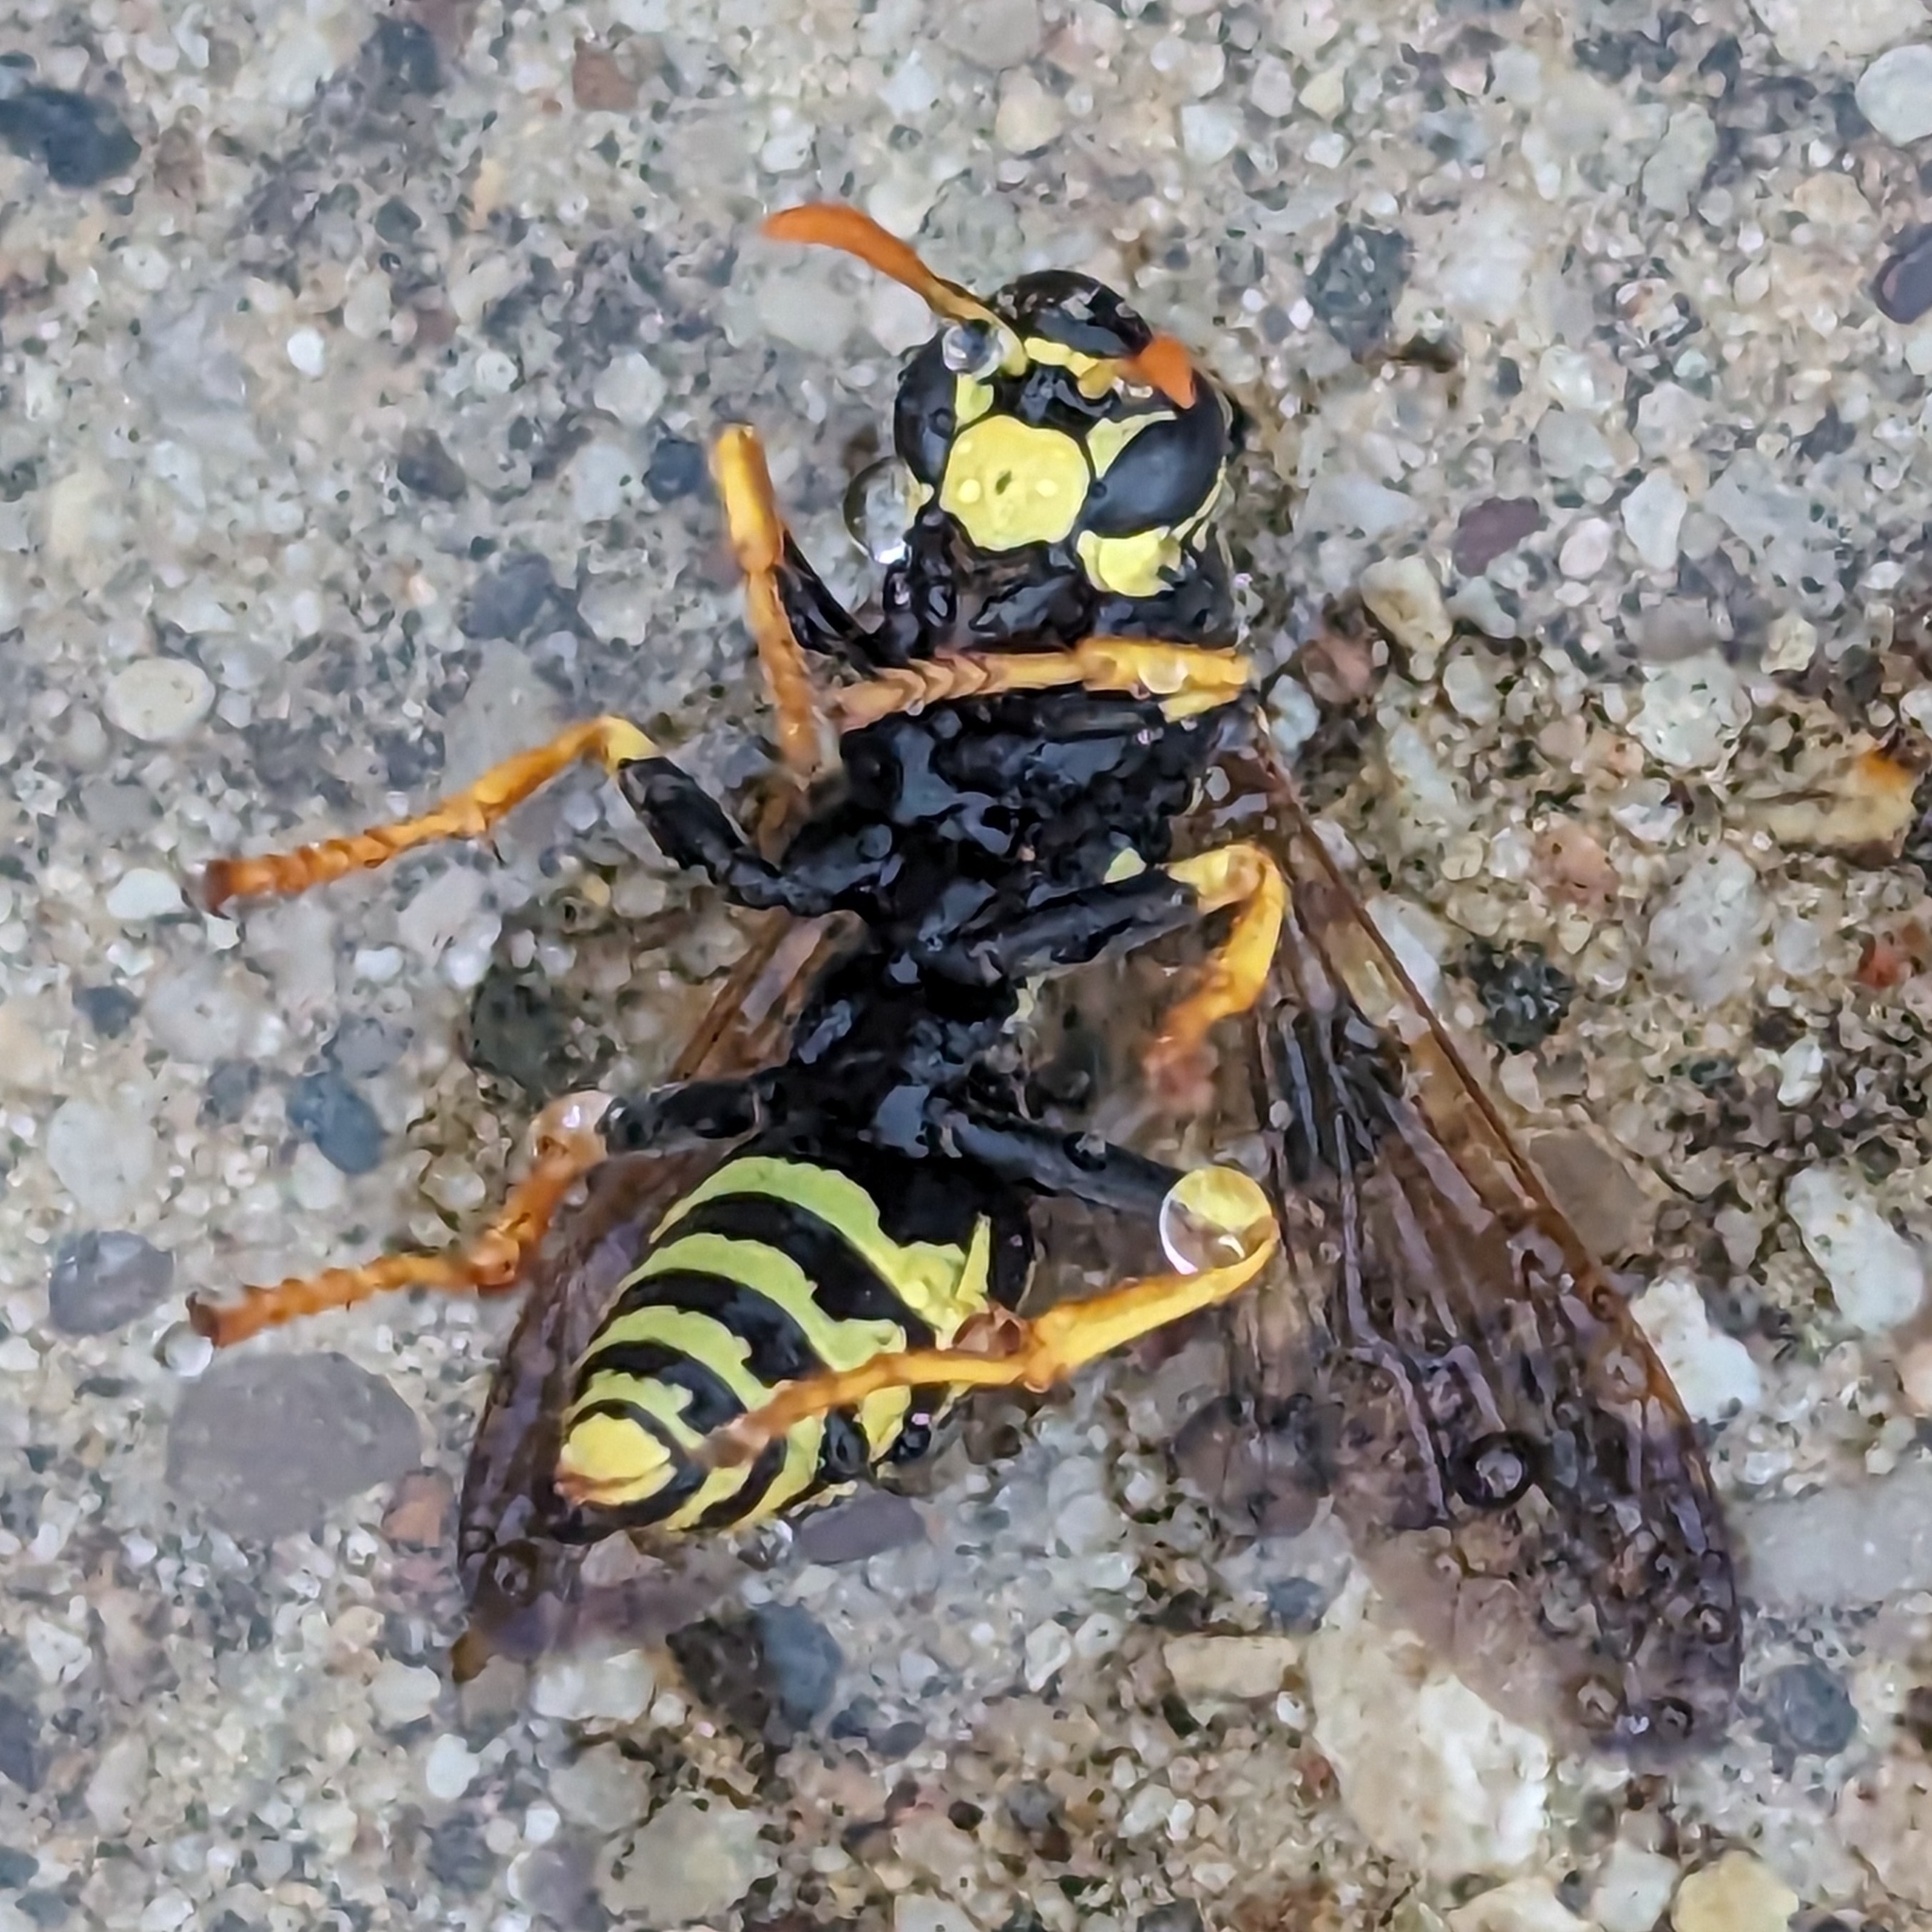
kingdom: Animalia
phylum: Arthropoda
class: Insecta
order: Hymenoptera
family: Eumenidae
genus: Polistes
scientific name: Polistes dominula
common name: Paper wasp
